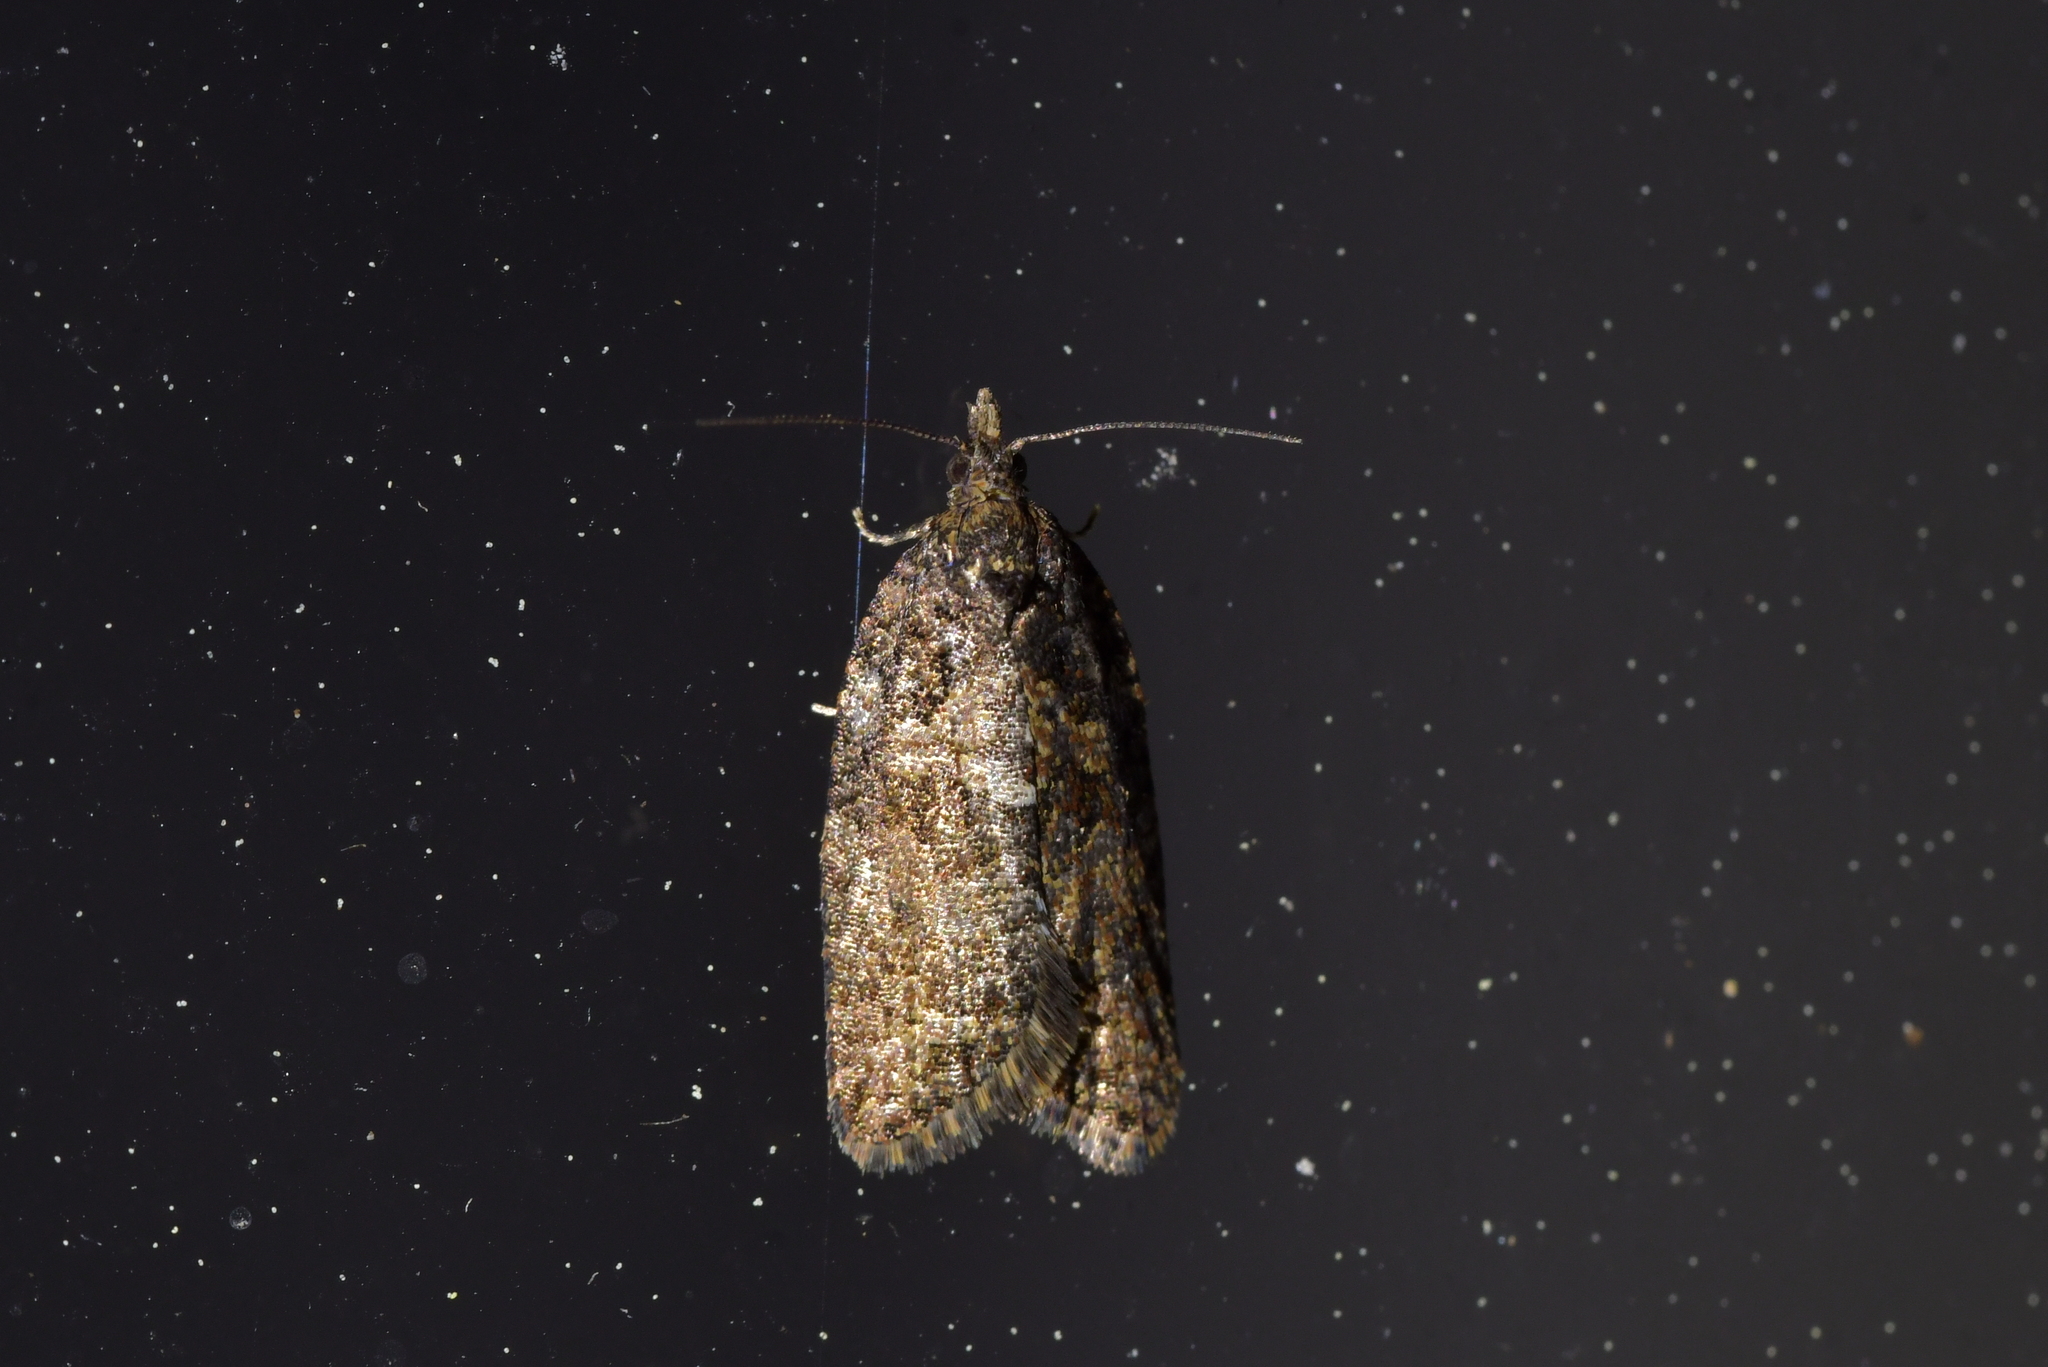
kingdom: Animalia
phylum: Arthropoda
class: Insecta
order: Lepidoptera
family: Tortricidae
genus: Capua
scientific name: Capua intractana
